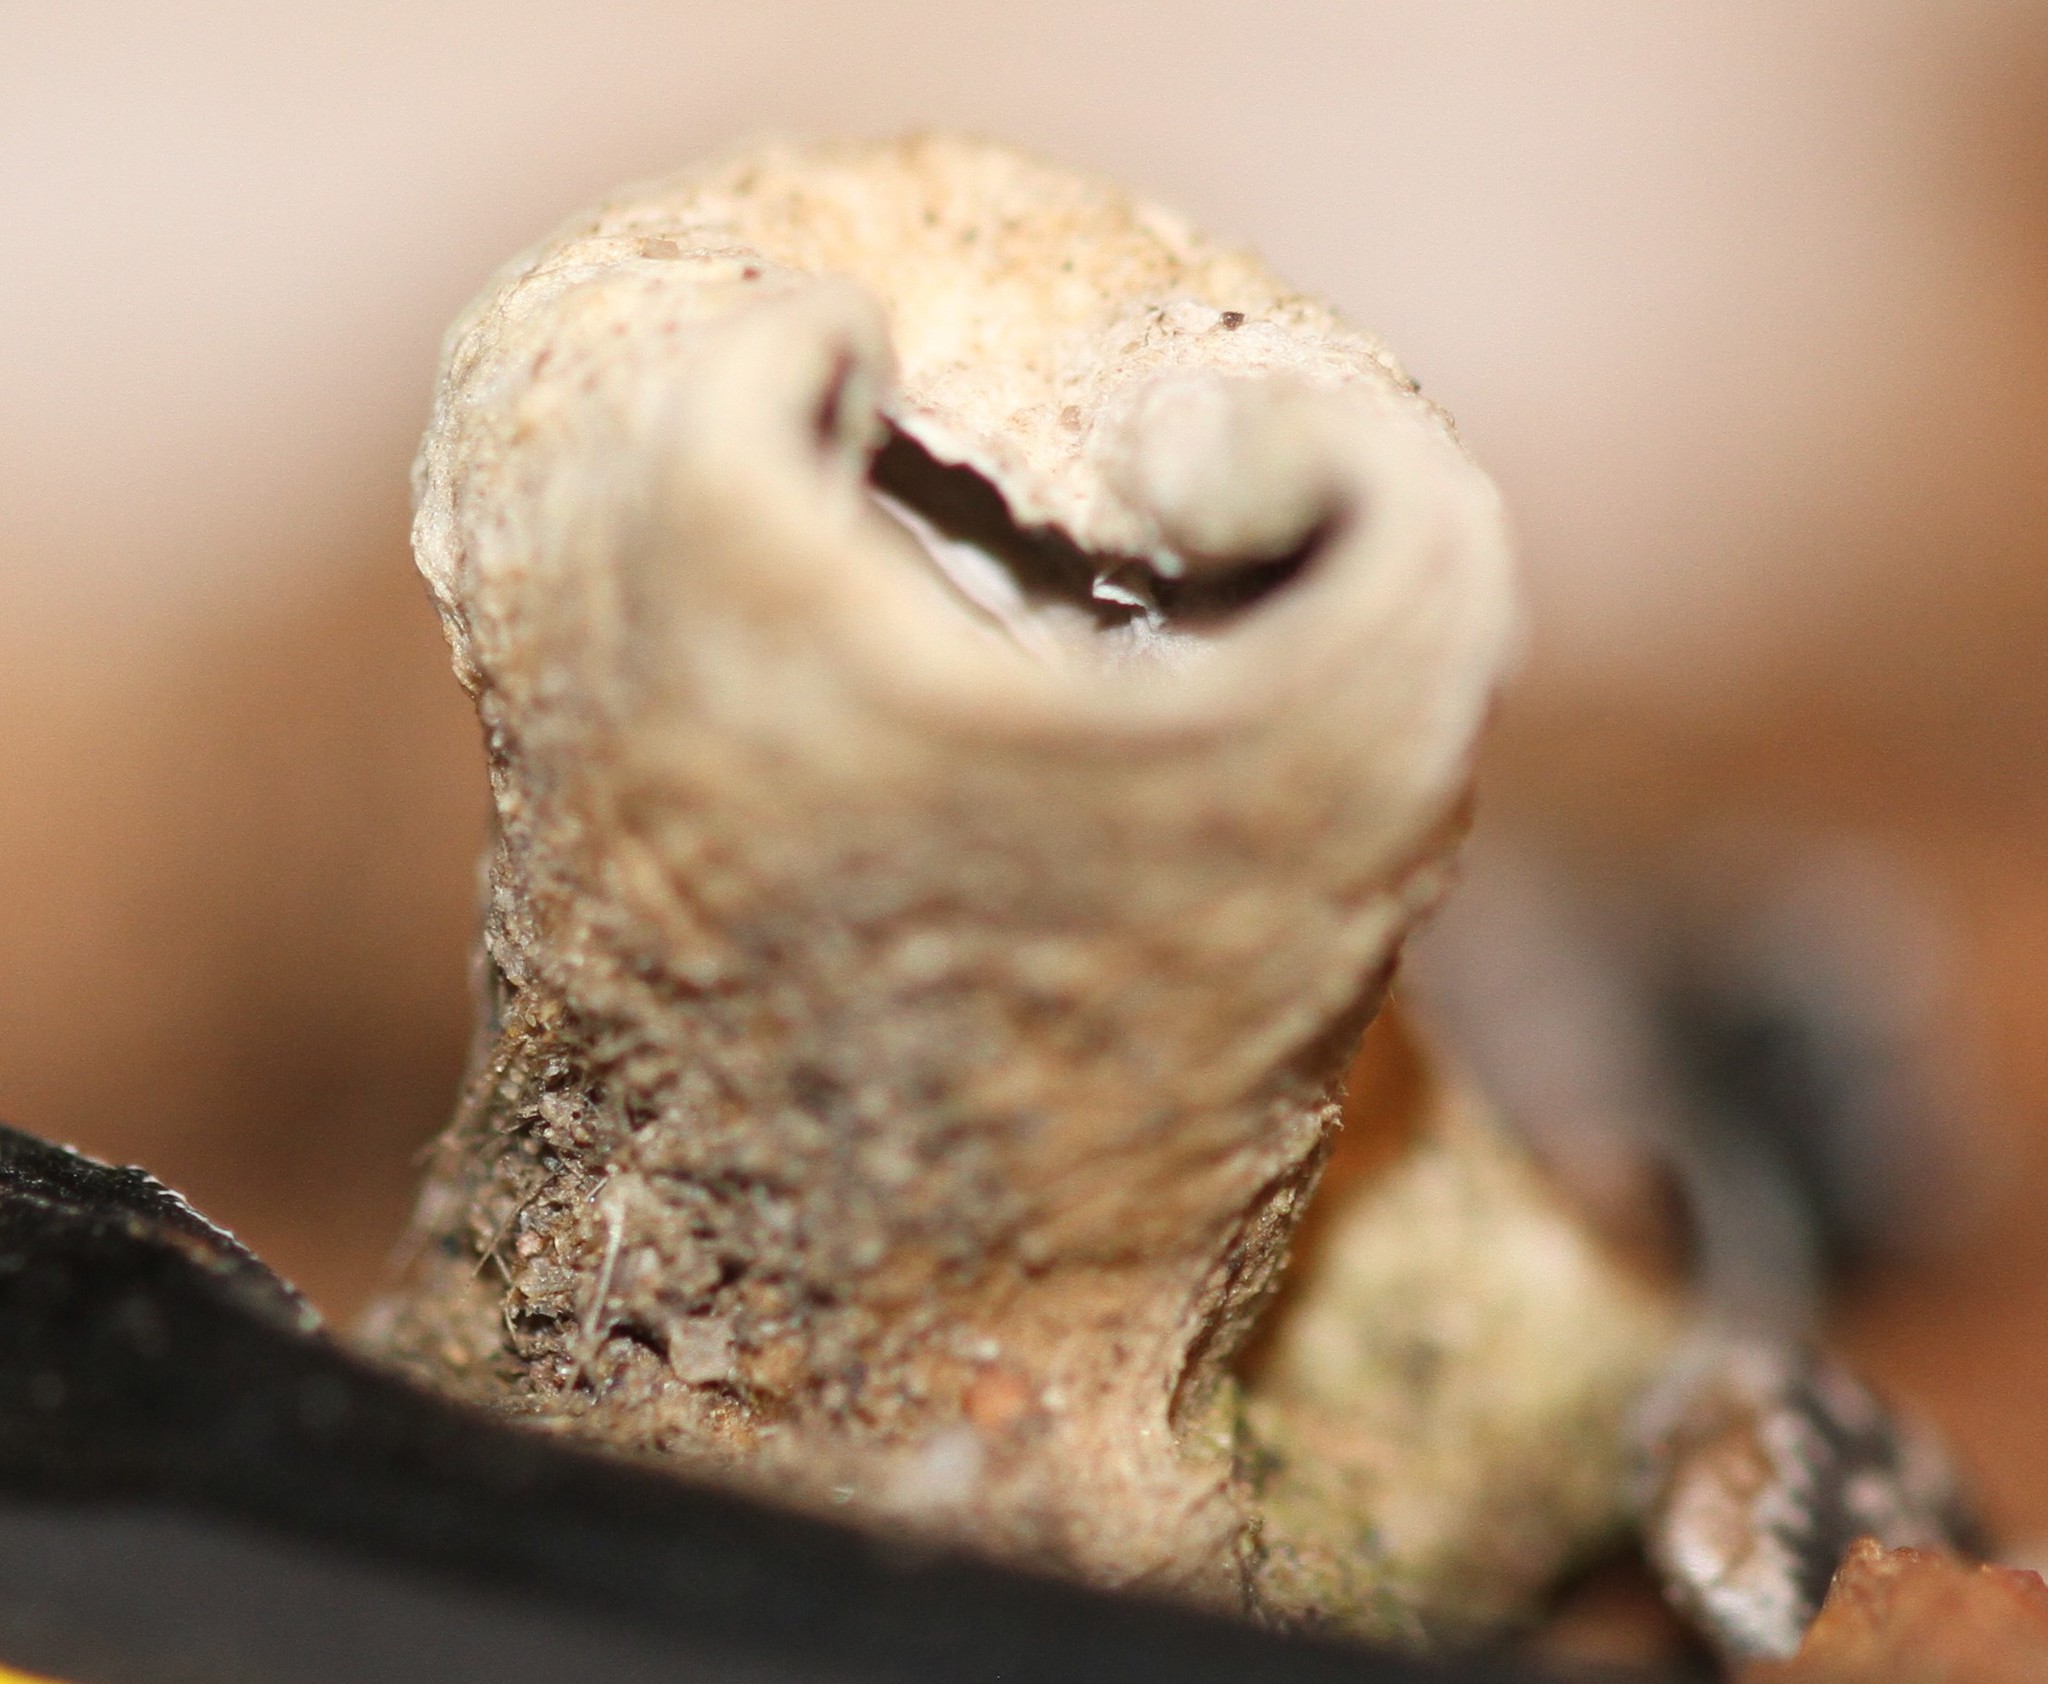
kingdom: Fungi
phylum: Basidiomycota
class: Agaricomycetes
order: Agaricales
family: Agaricaceae
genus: Cyathus
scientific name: Cyathus olla
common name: Field bird's nest
